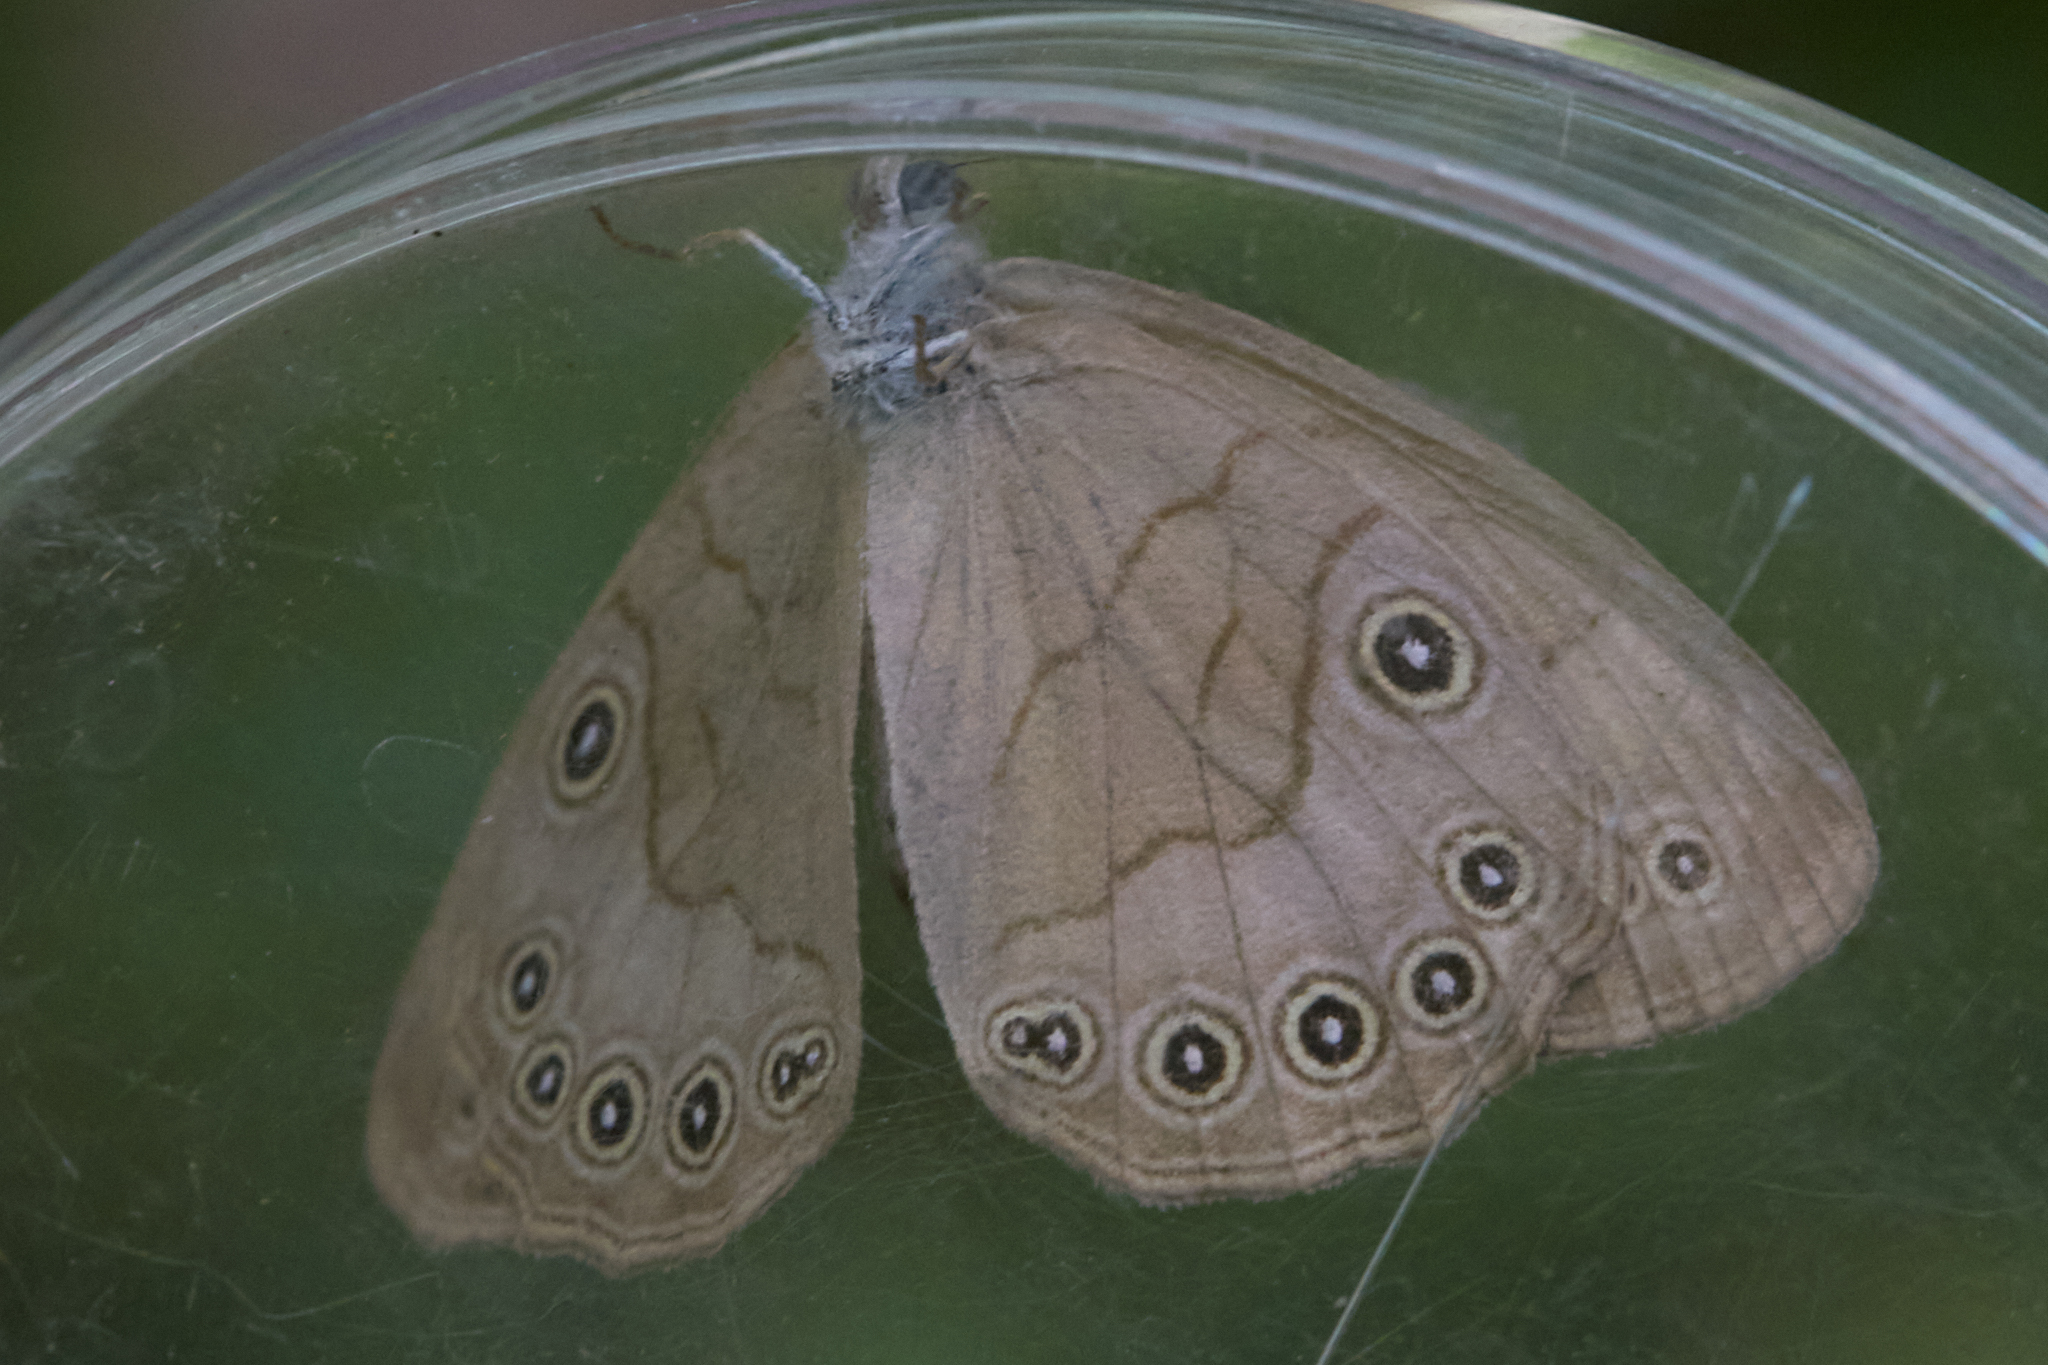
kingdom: Animalia
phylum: Arthropoda
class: Insecta
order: Lepidoptera
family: Nymphalidae
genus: Lethe
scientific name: Lethe eurydice
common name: Eyed brown
